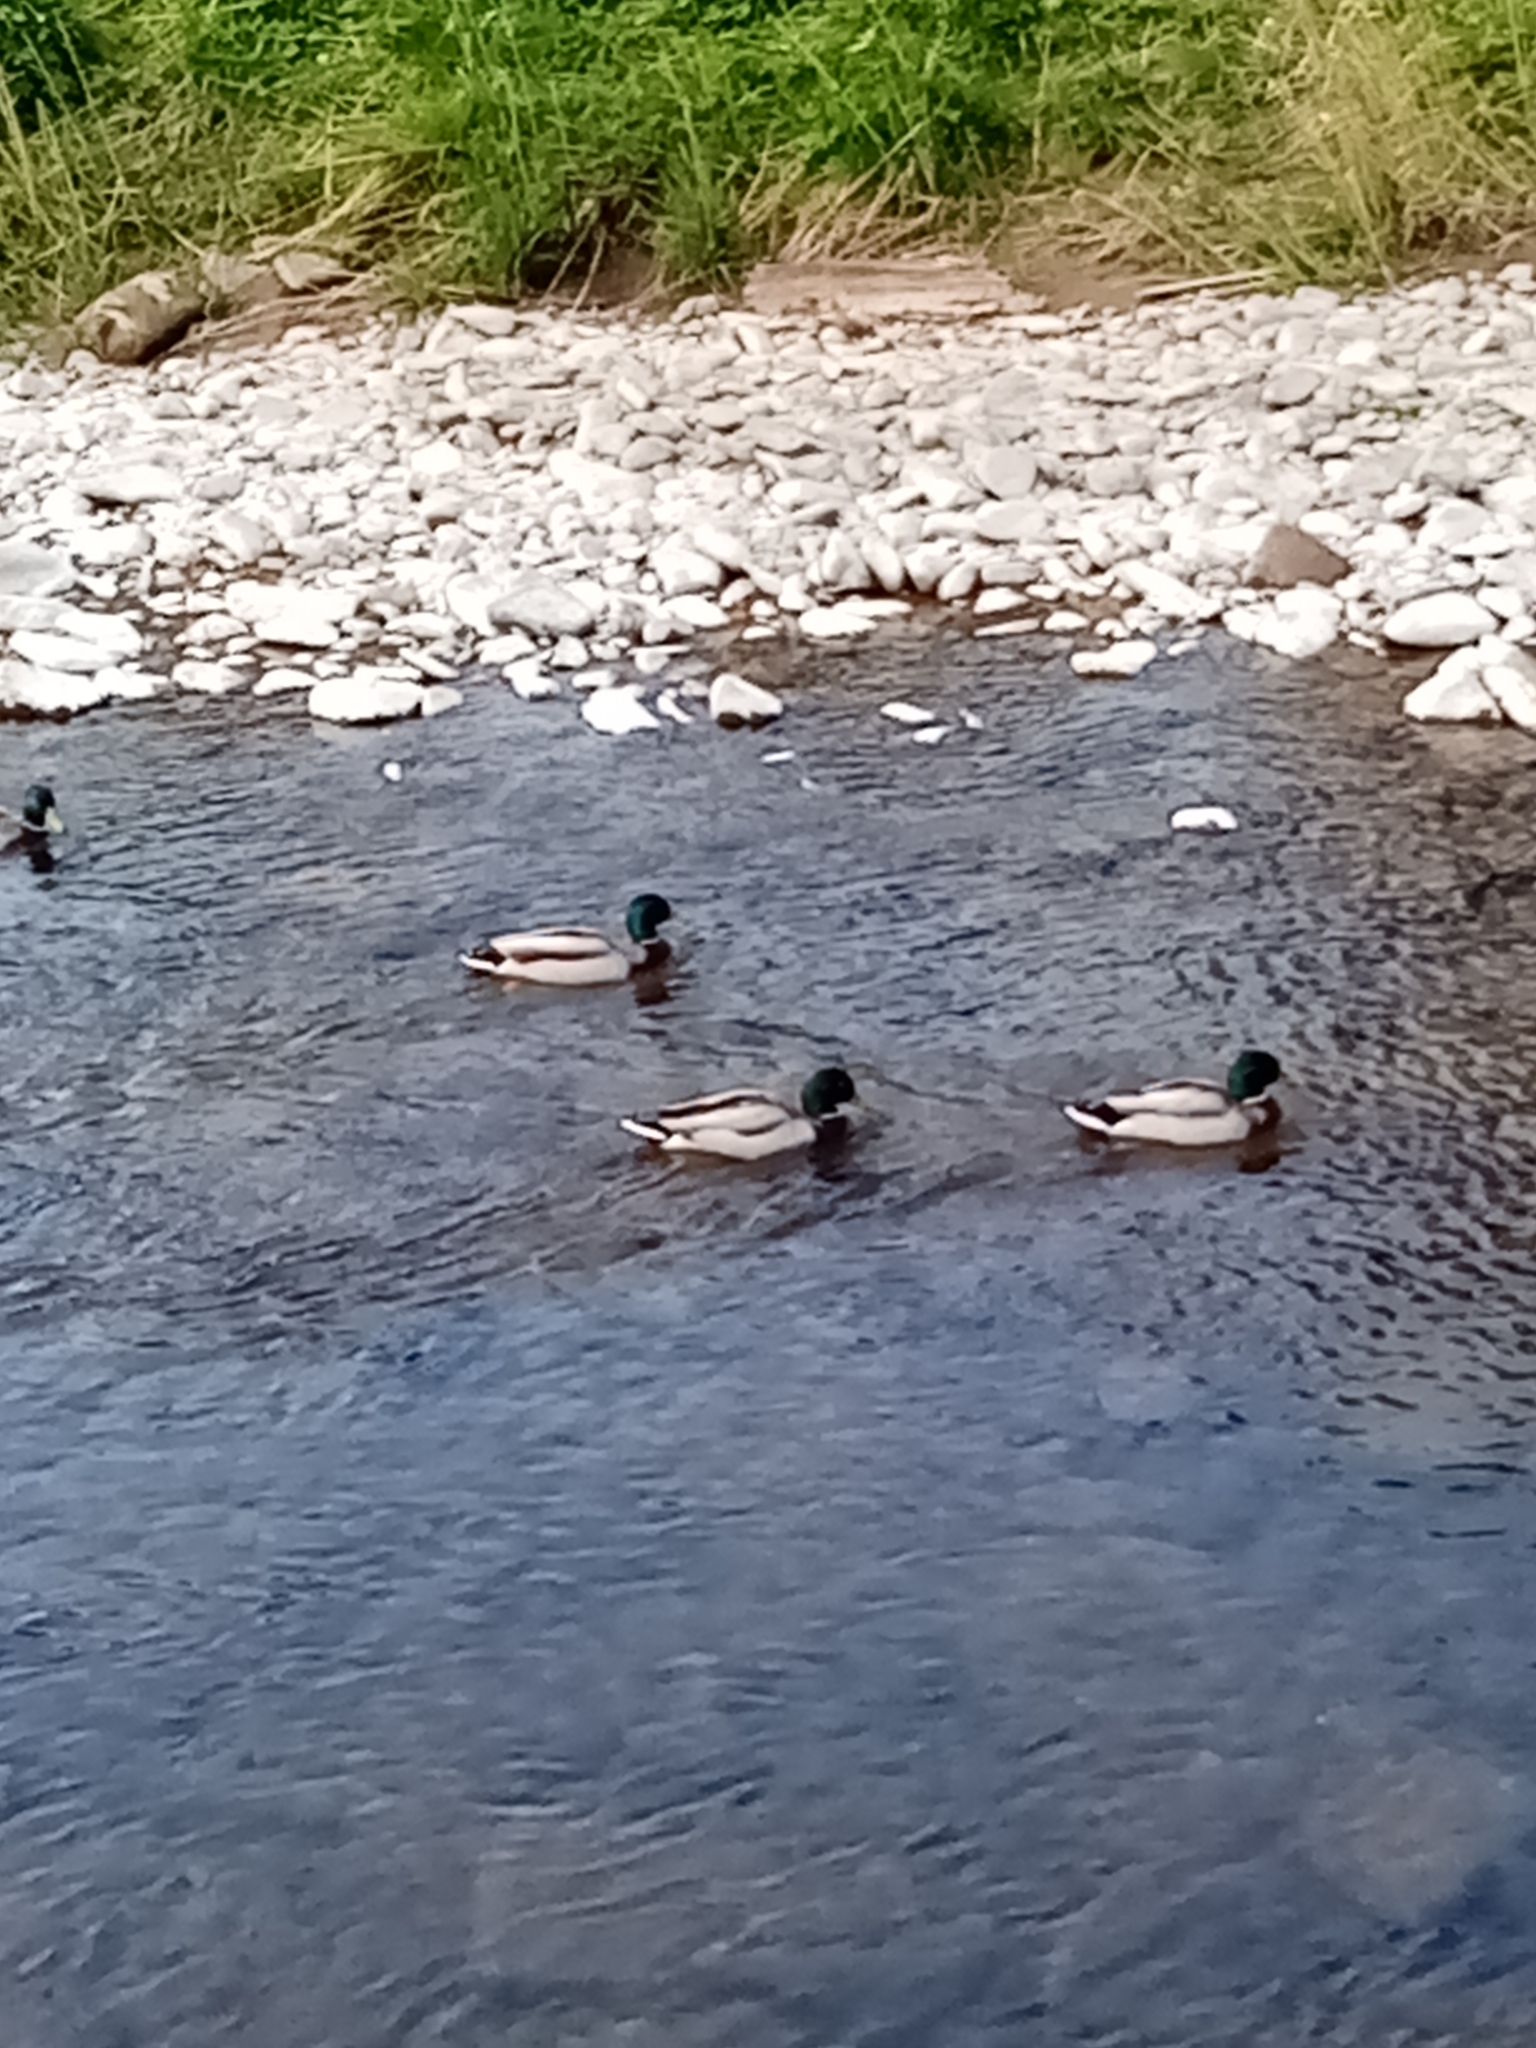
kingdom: Animalia
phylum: Chordata
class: Aves
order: Anseriformes
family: Anatidae
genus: Anas
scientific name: Anas platyrhynchos
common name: Mallard
